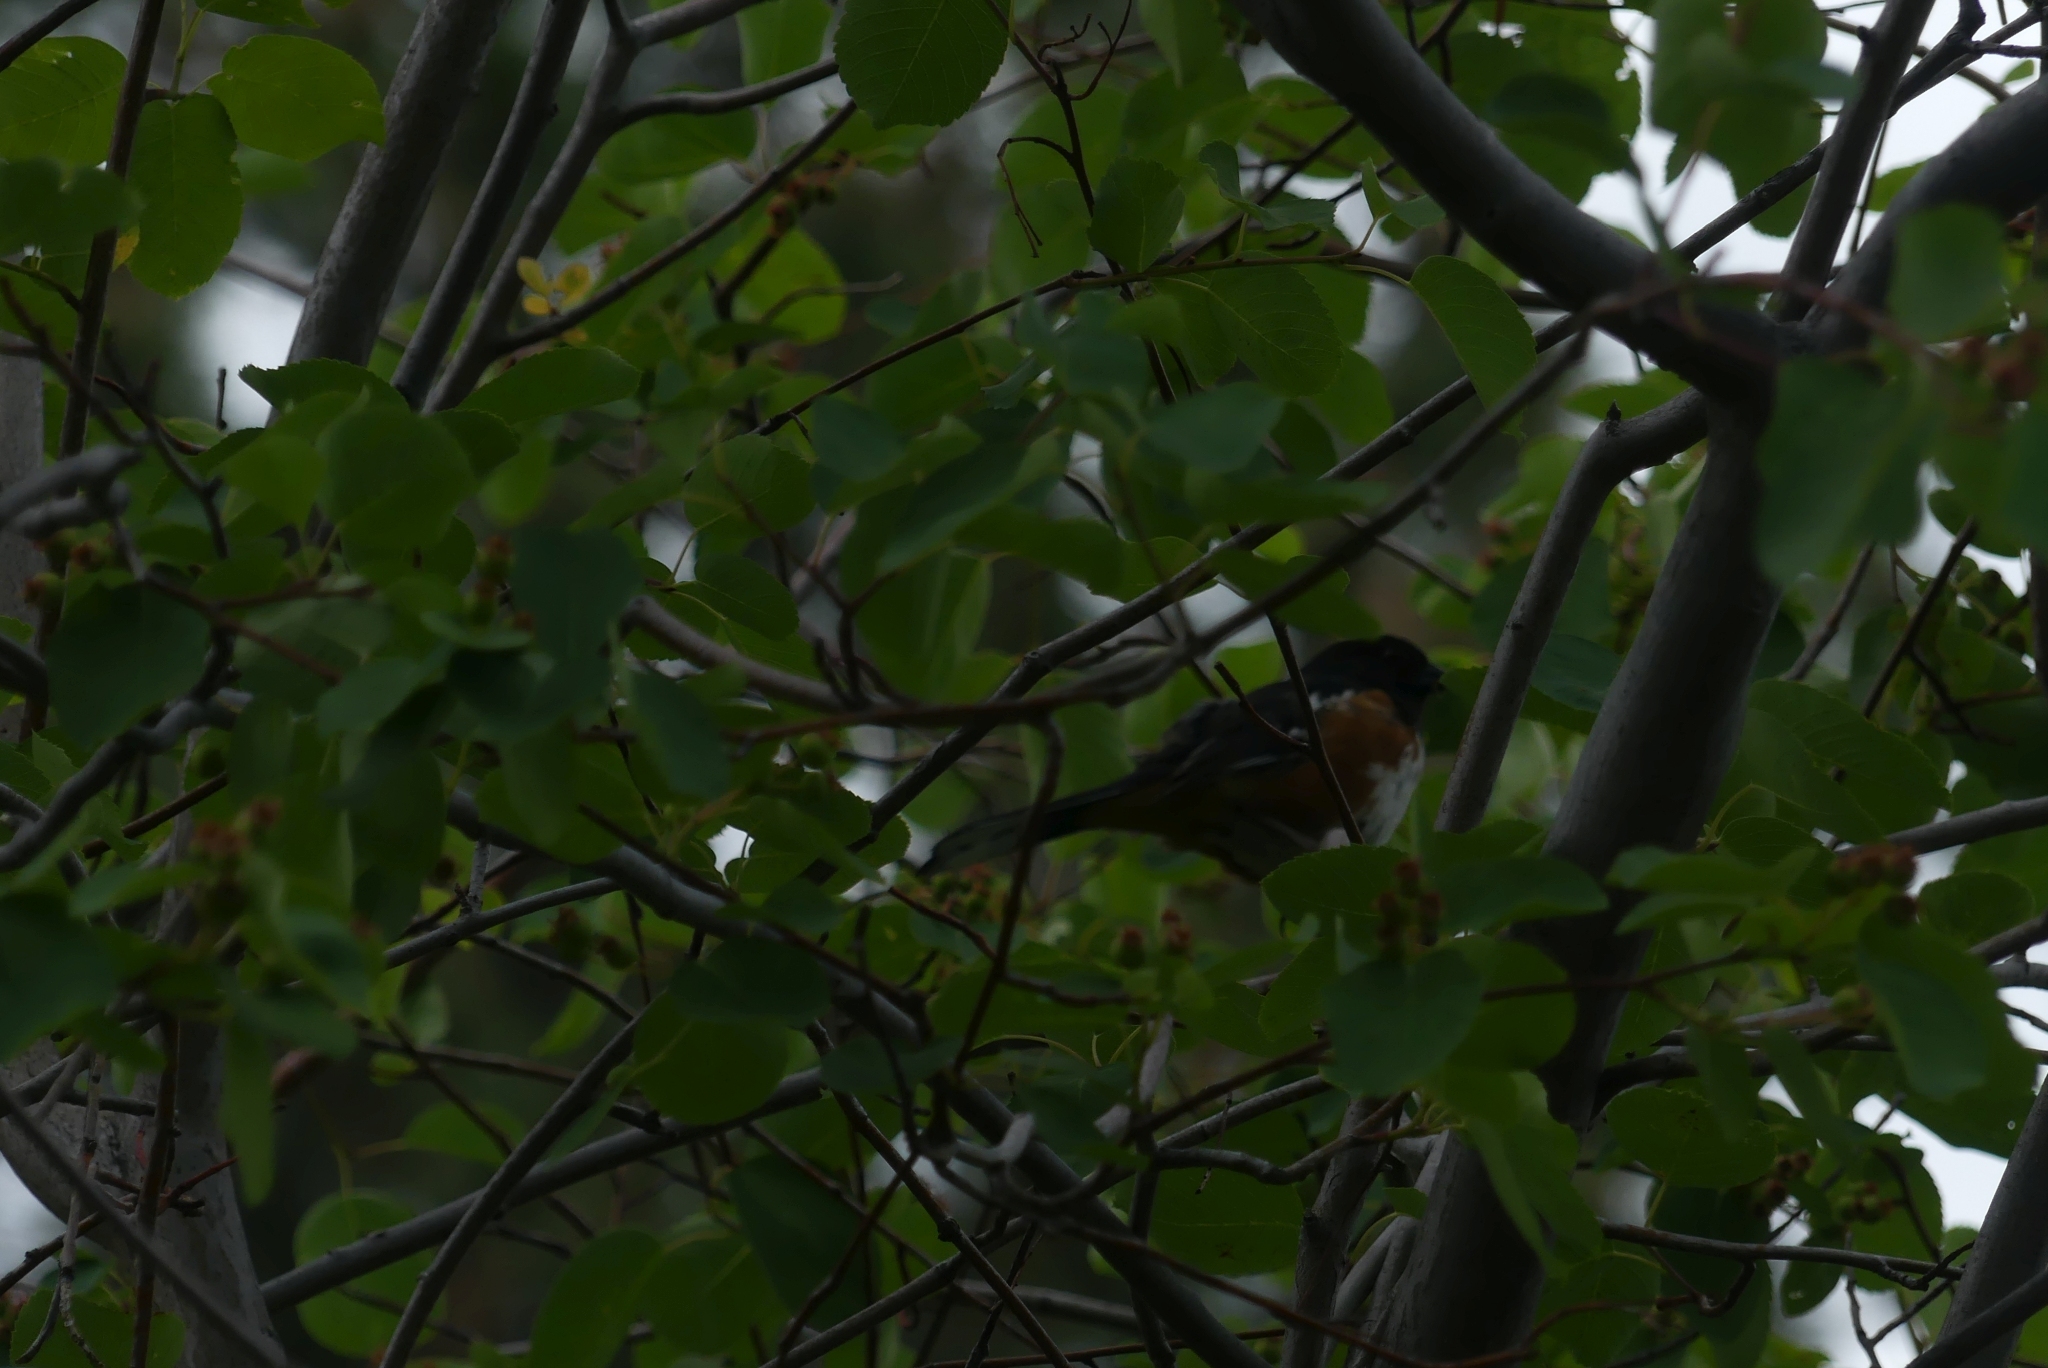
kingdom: Animalia
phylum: Chordata
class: Aves
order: Passeriformes
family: Passerellidae
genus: Pipilo
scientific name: Pipilo maculatus
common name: Spotted towhee
